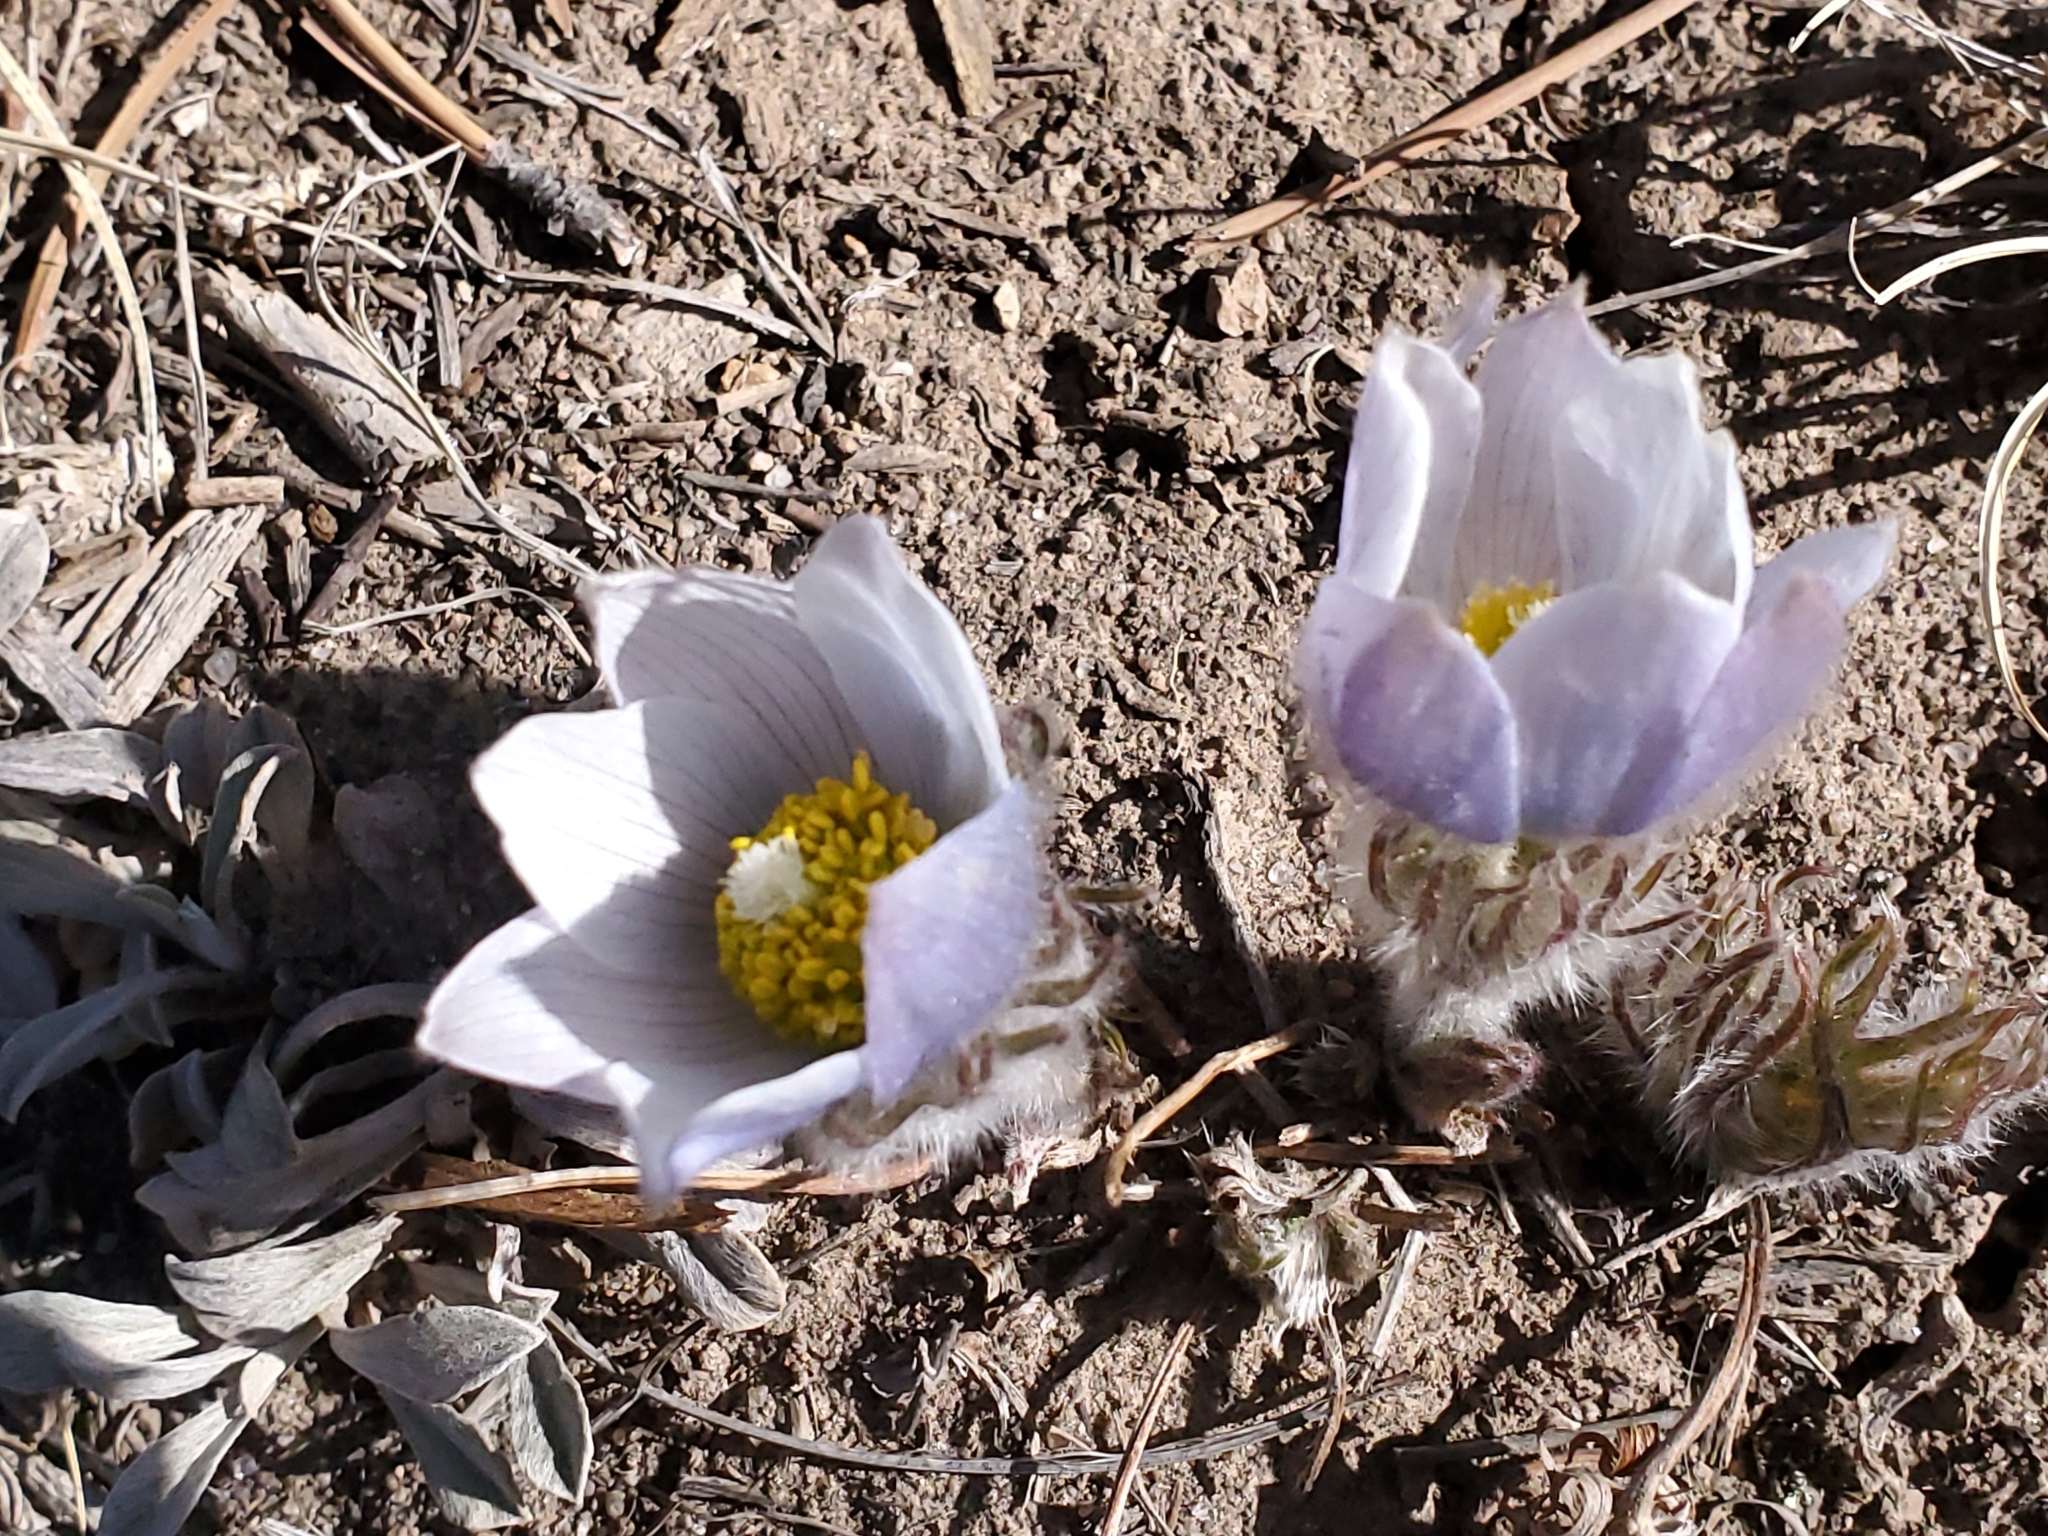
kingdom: Plantae
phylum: Tracheophyta
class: Magnoliopsida
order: Ranunculales
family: Ranunculaceae
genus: Pulsatilla
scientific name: Pulsatilla nuttalliana
